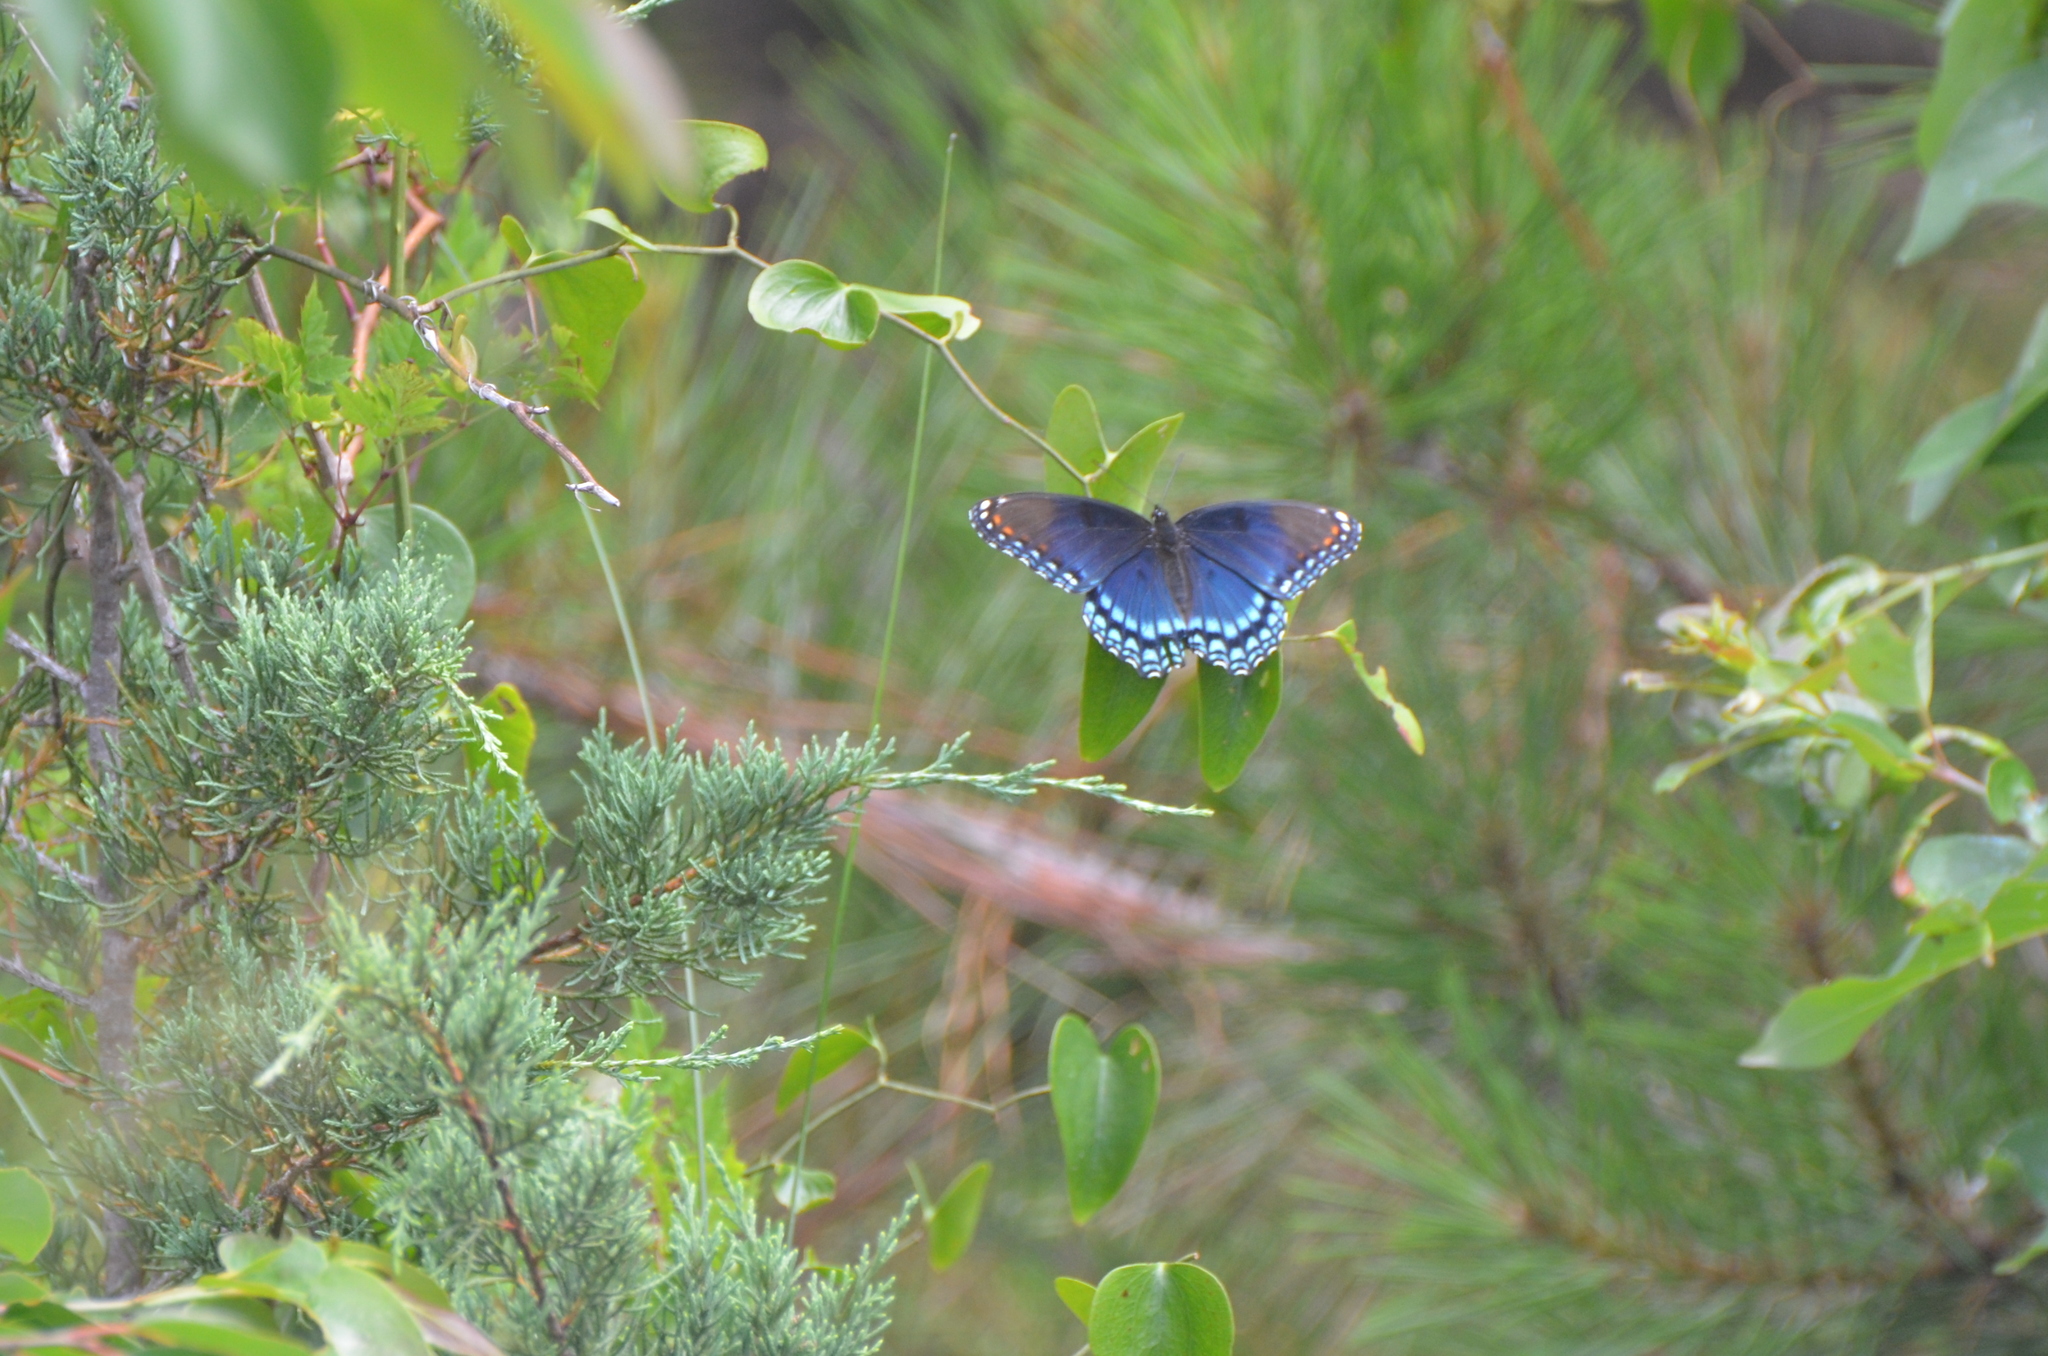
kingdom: Animalia
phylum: Arthropoda
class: Insecta
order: Lepidoptera
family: Nymphalidae
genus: Limenitis
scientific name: Limenitis astyanax
